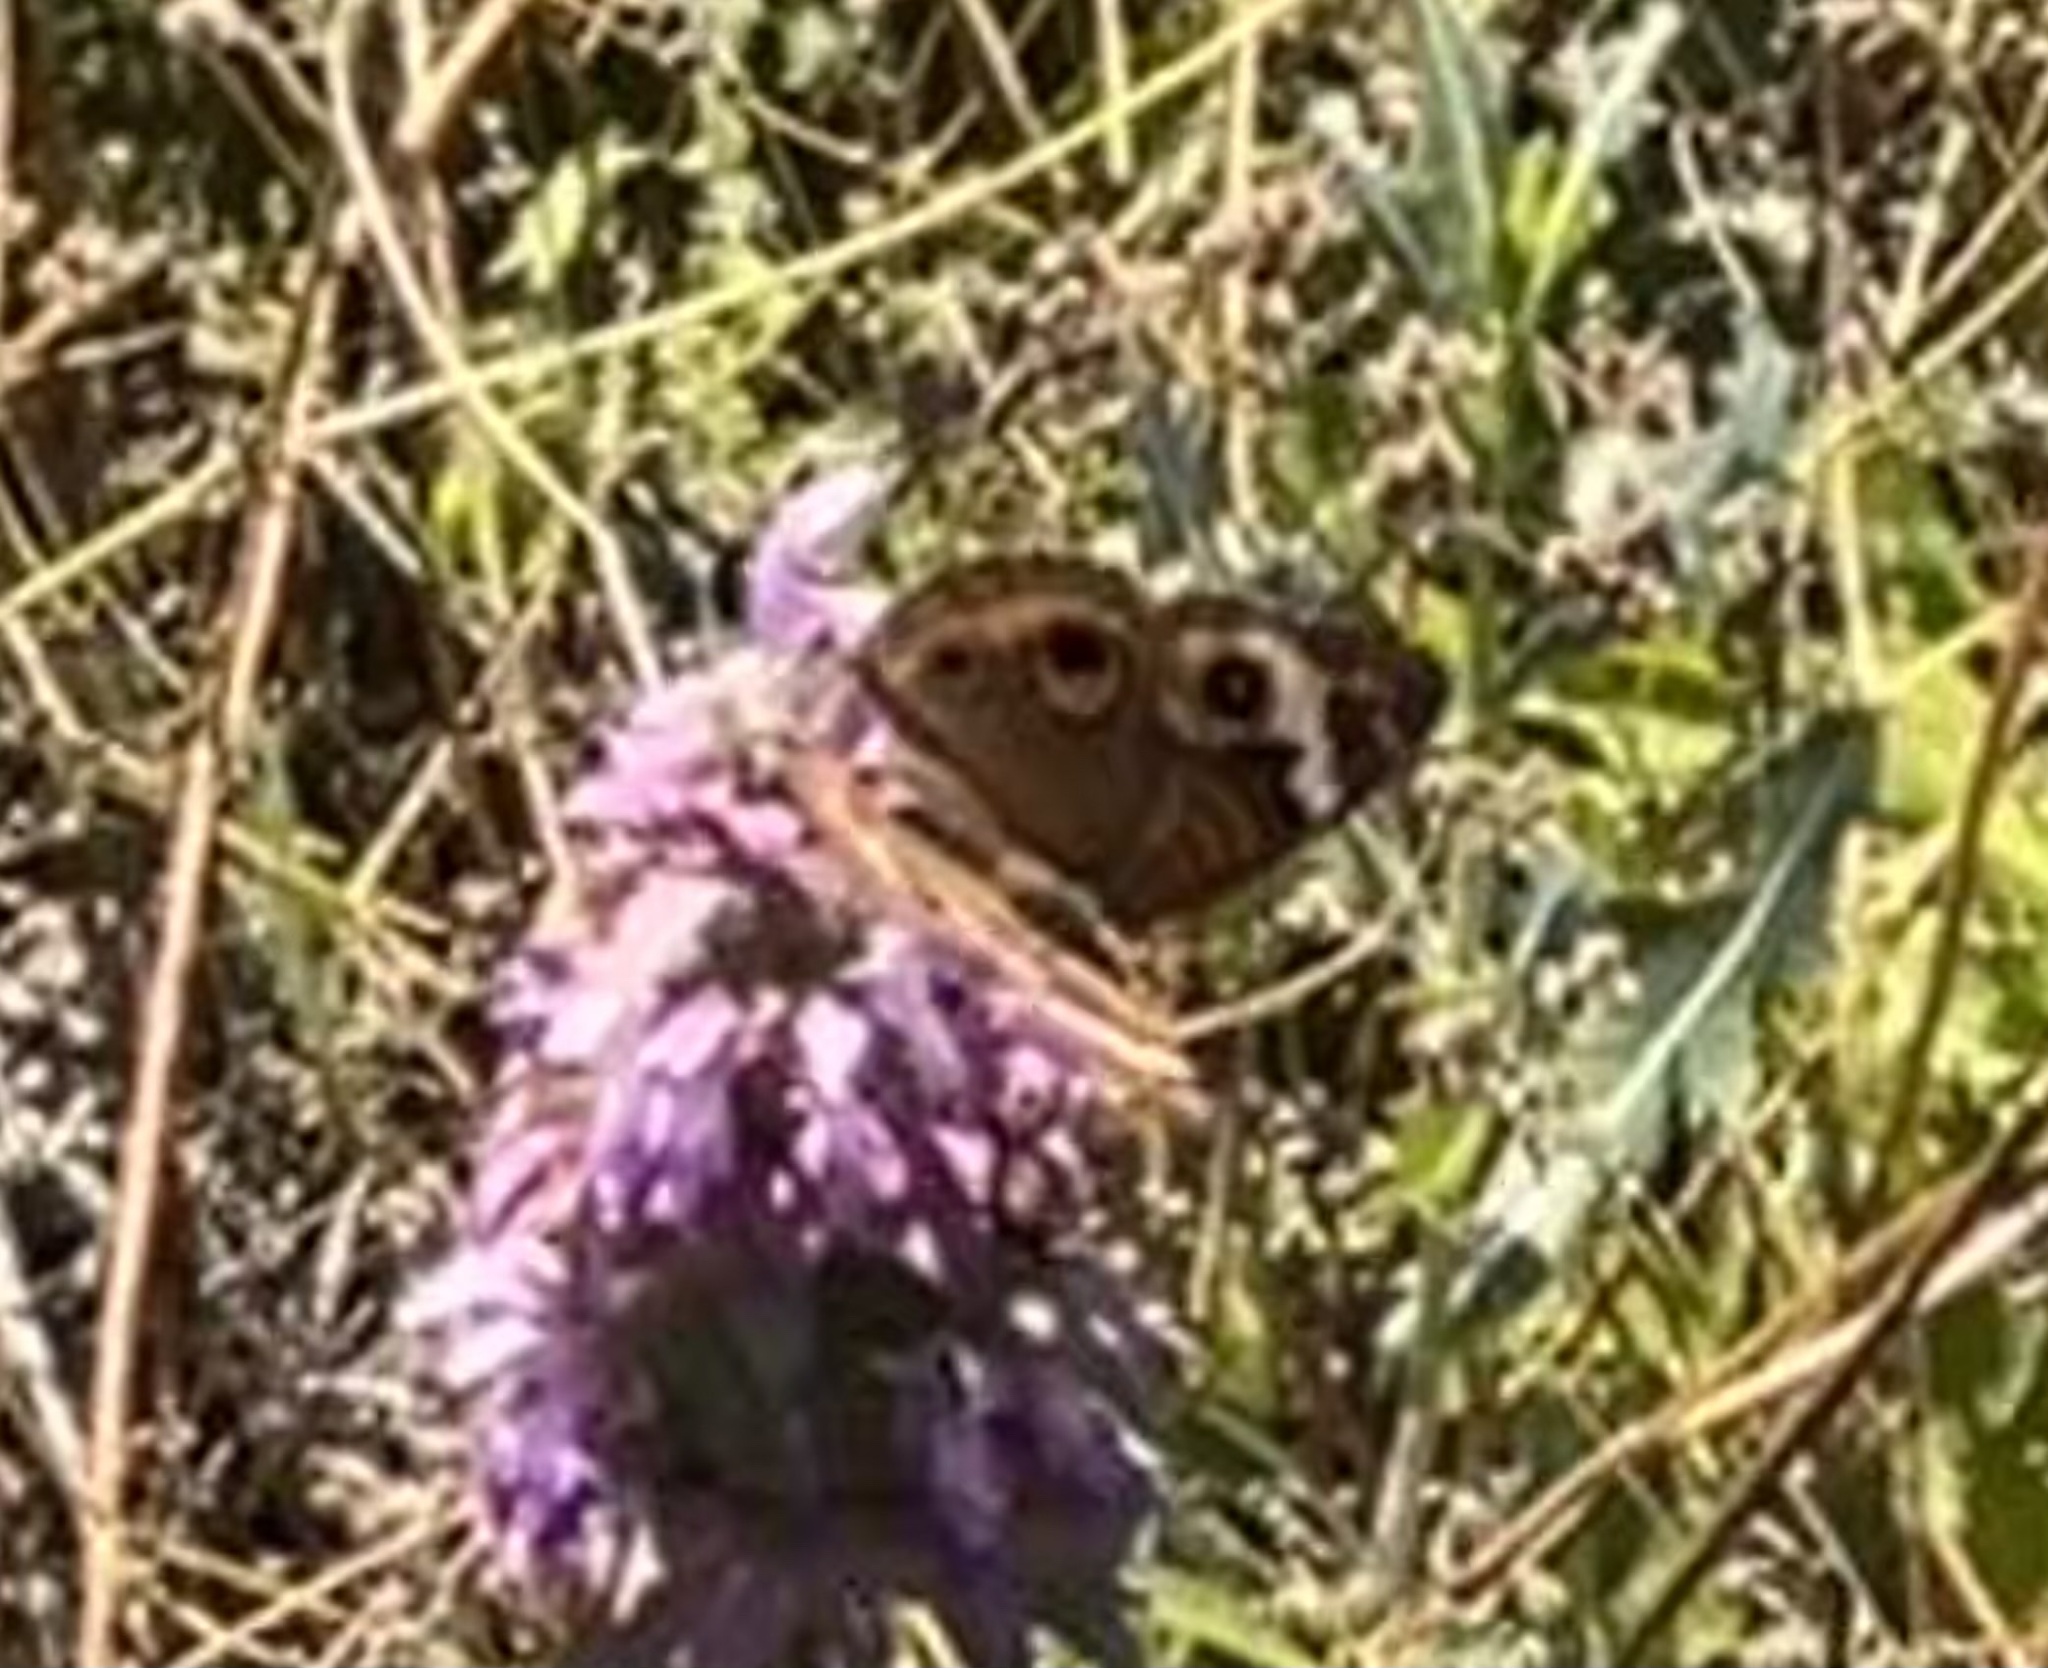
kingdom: Animalia
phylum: Arthropoda
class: Insecta
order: Lepidoptera
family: Nymphalidae
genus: Junonia
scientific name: Junonia coenia
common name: Common buckeye
